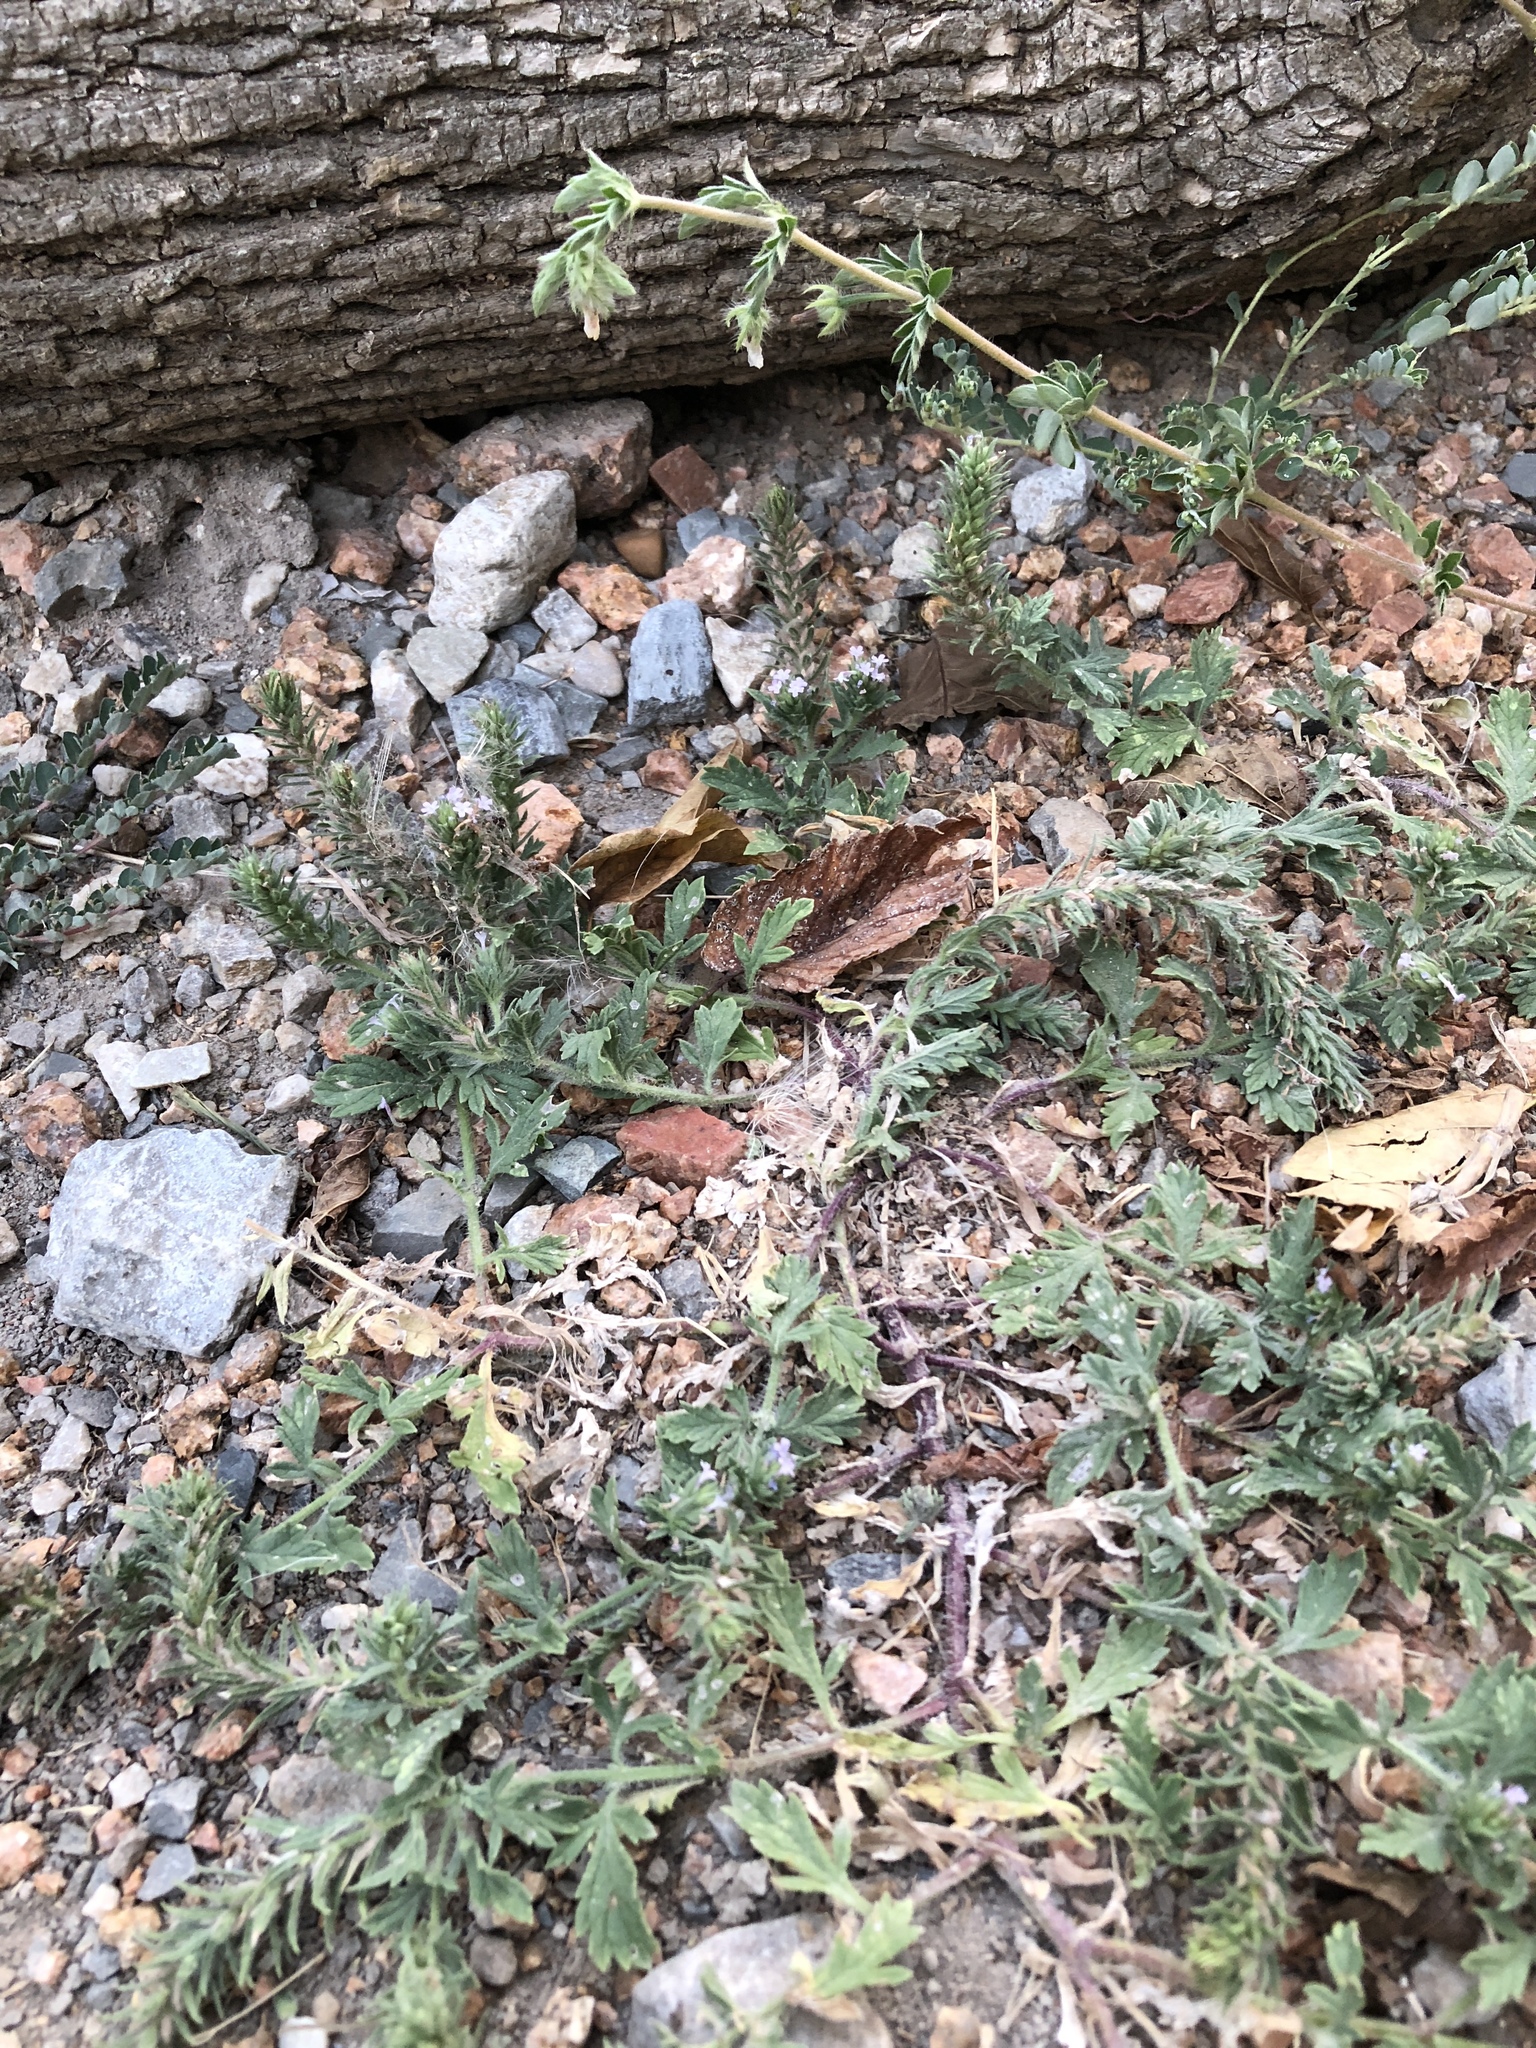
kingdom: Plantae
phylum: Tracheophyta
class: Magnoliopsida
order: Lamiales
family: Verbenaceae
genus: Verbena
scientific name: Verbena bracteata
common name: Bracted vervain
